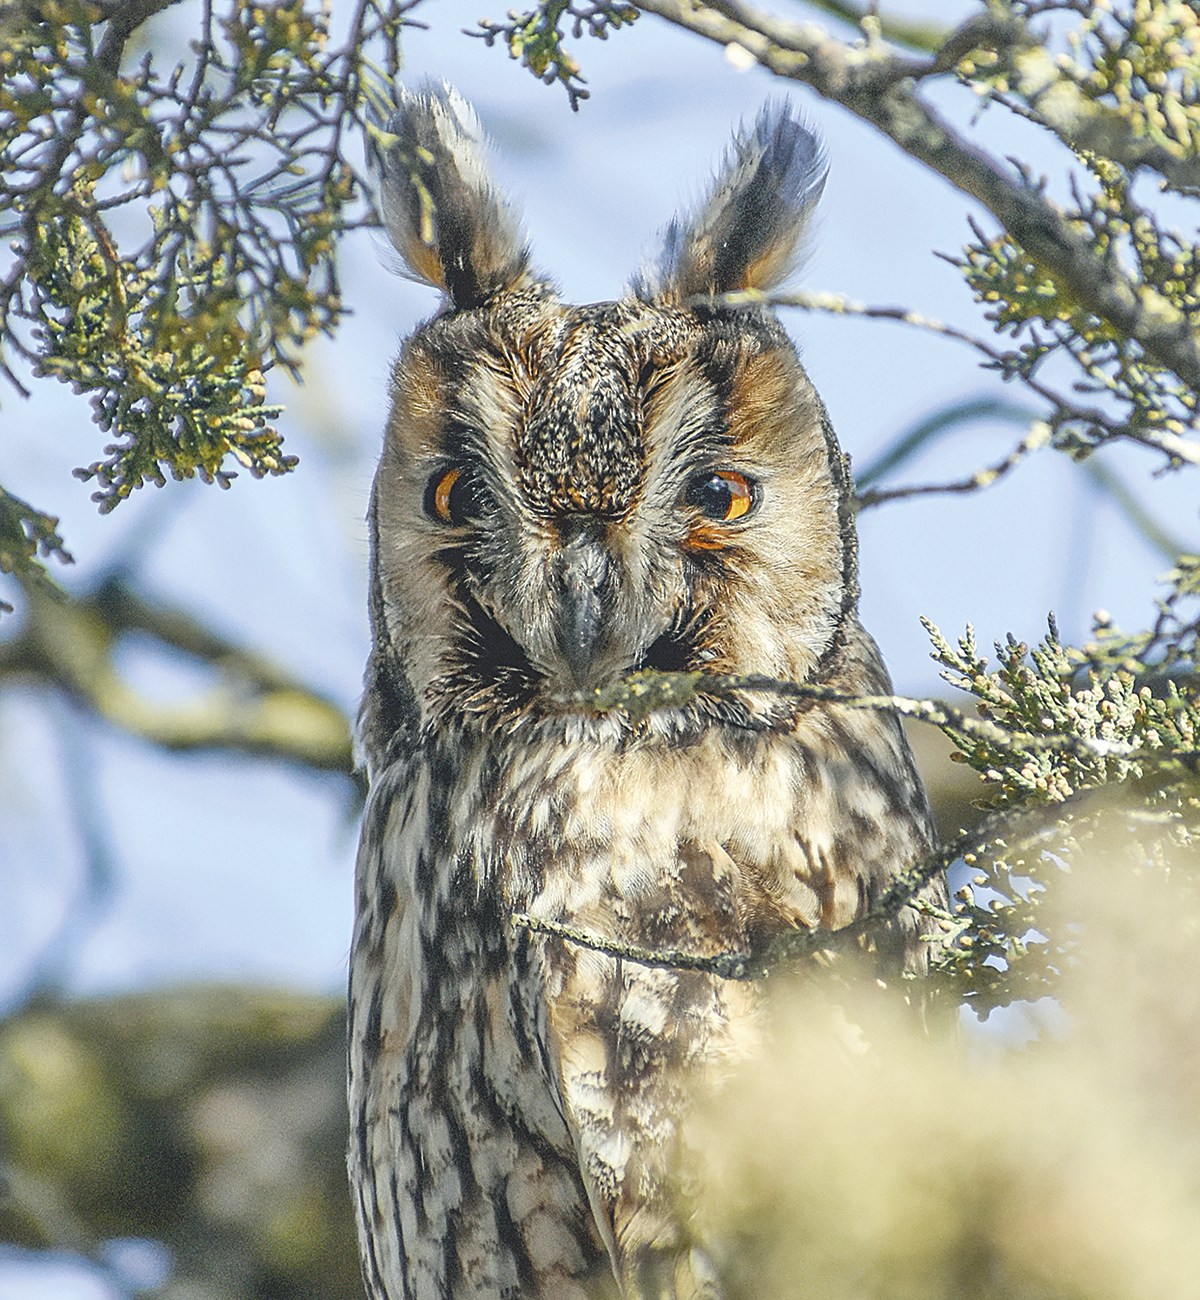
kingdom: Animalia
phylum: Chordata
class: Aves
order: Strigiformes
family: Strigidae
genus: Asio
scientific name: Asio otus
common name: Long-eared owl
